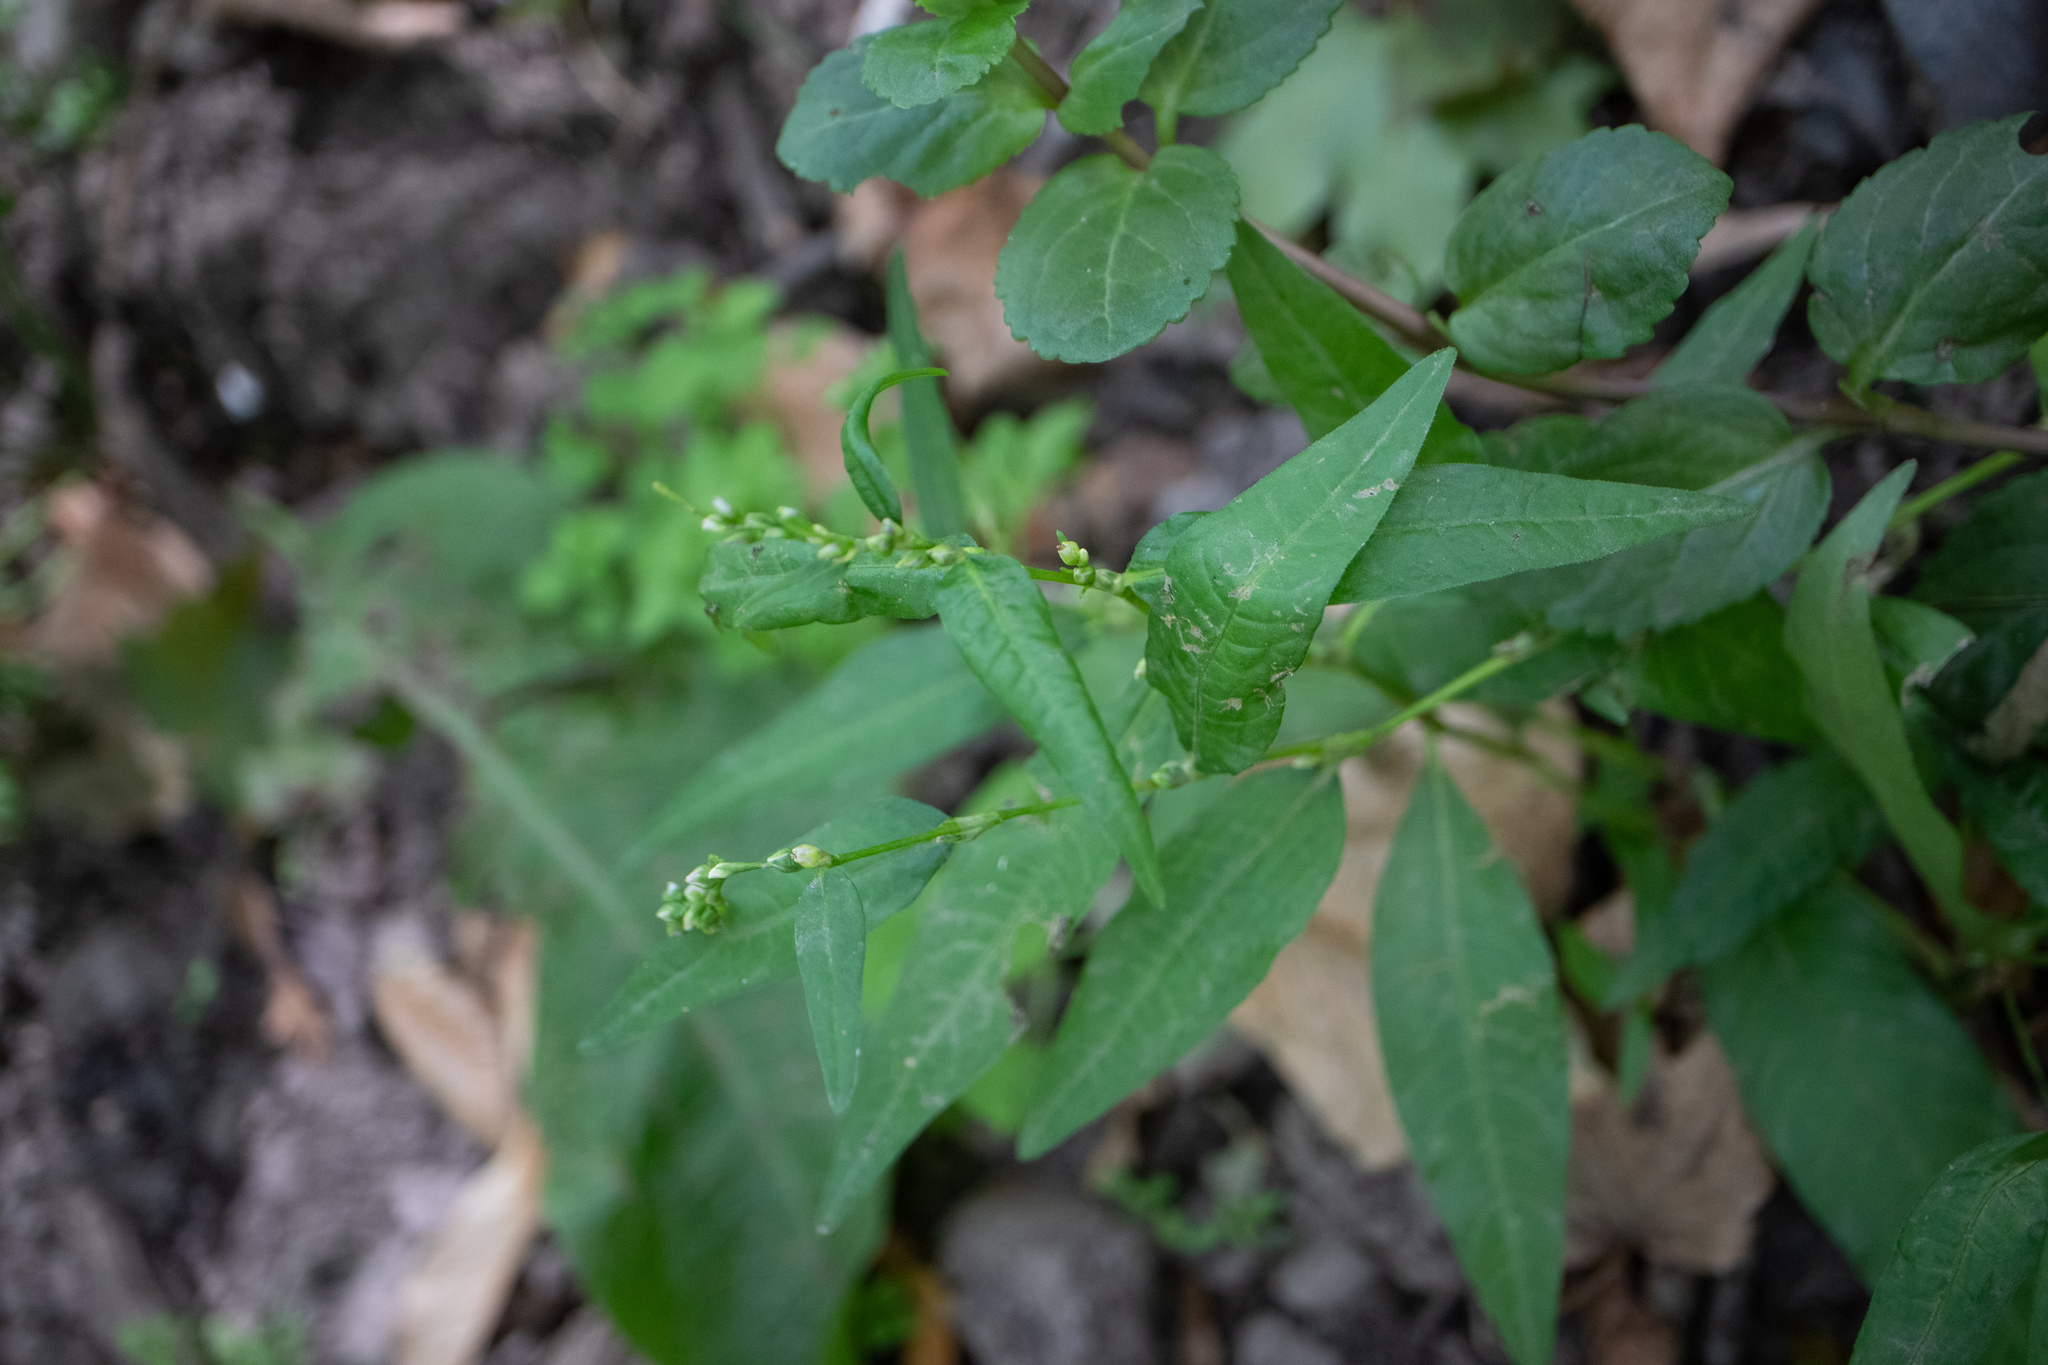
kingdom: Plantae
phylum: Tracheophyta
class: Magnoliopsida
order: Caryophyllales
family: Polygonaceae
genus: Persicaria
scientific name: Persicaria hydropiper
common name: Water-pepper
